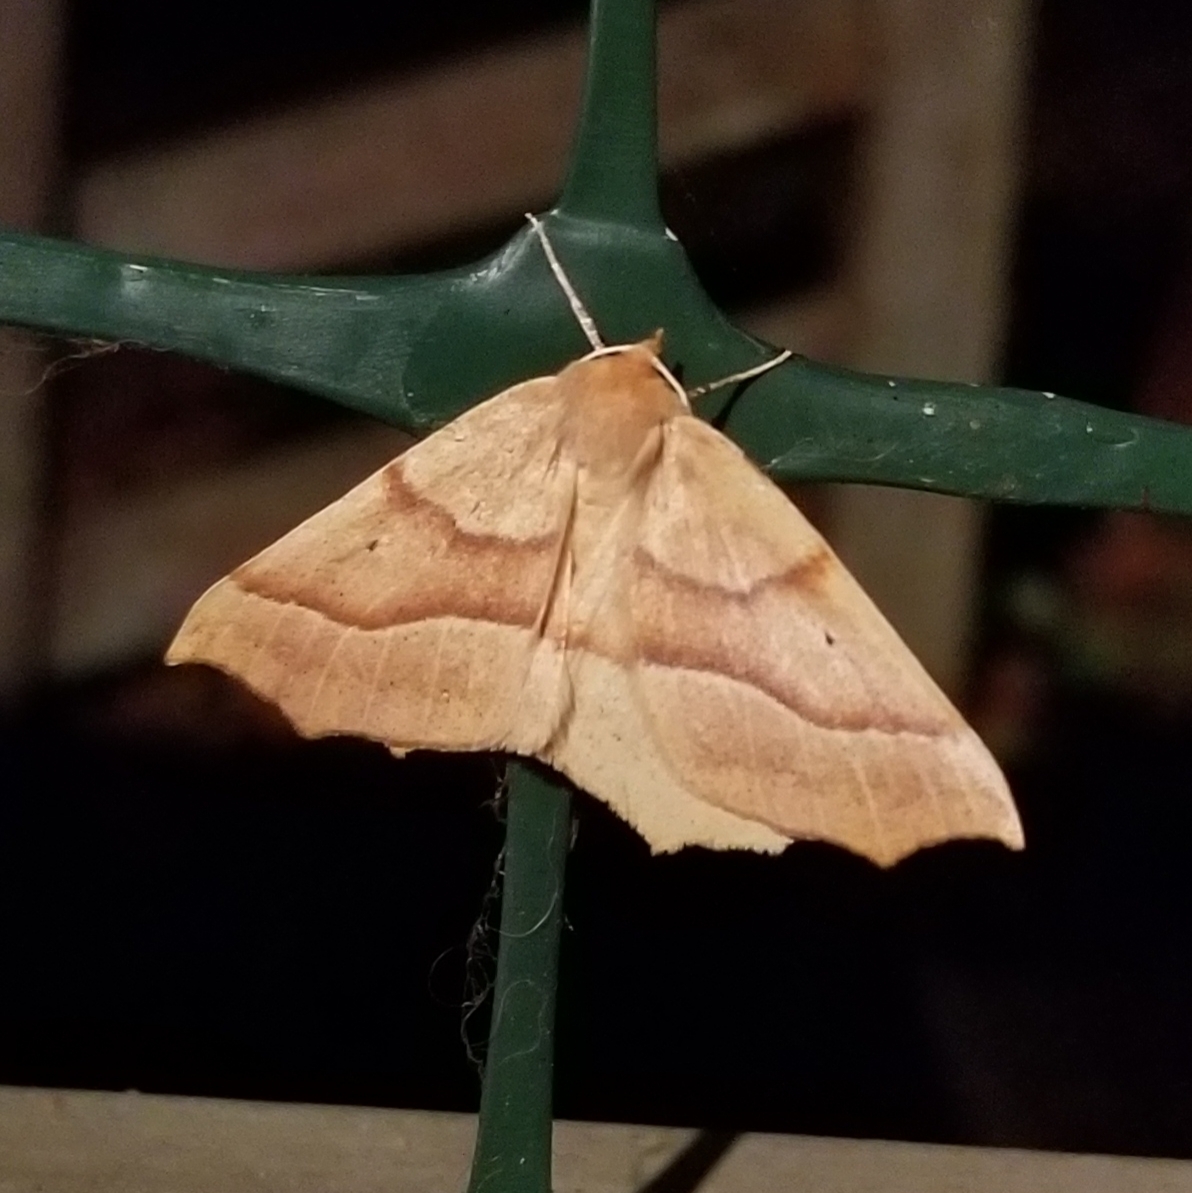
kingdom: Animalia
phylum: Arthropoda
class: Insecta
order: Lepidoptera
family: Geometridae
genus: Synaxis
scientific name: Synaxis jubararia
